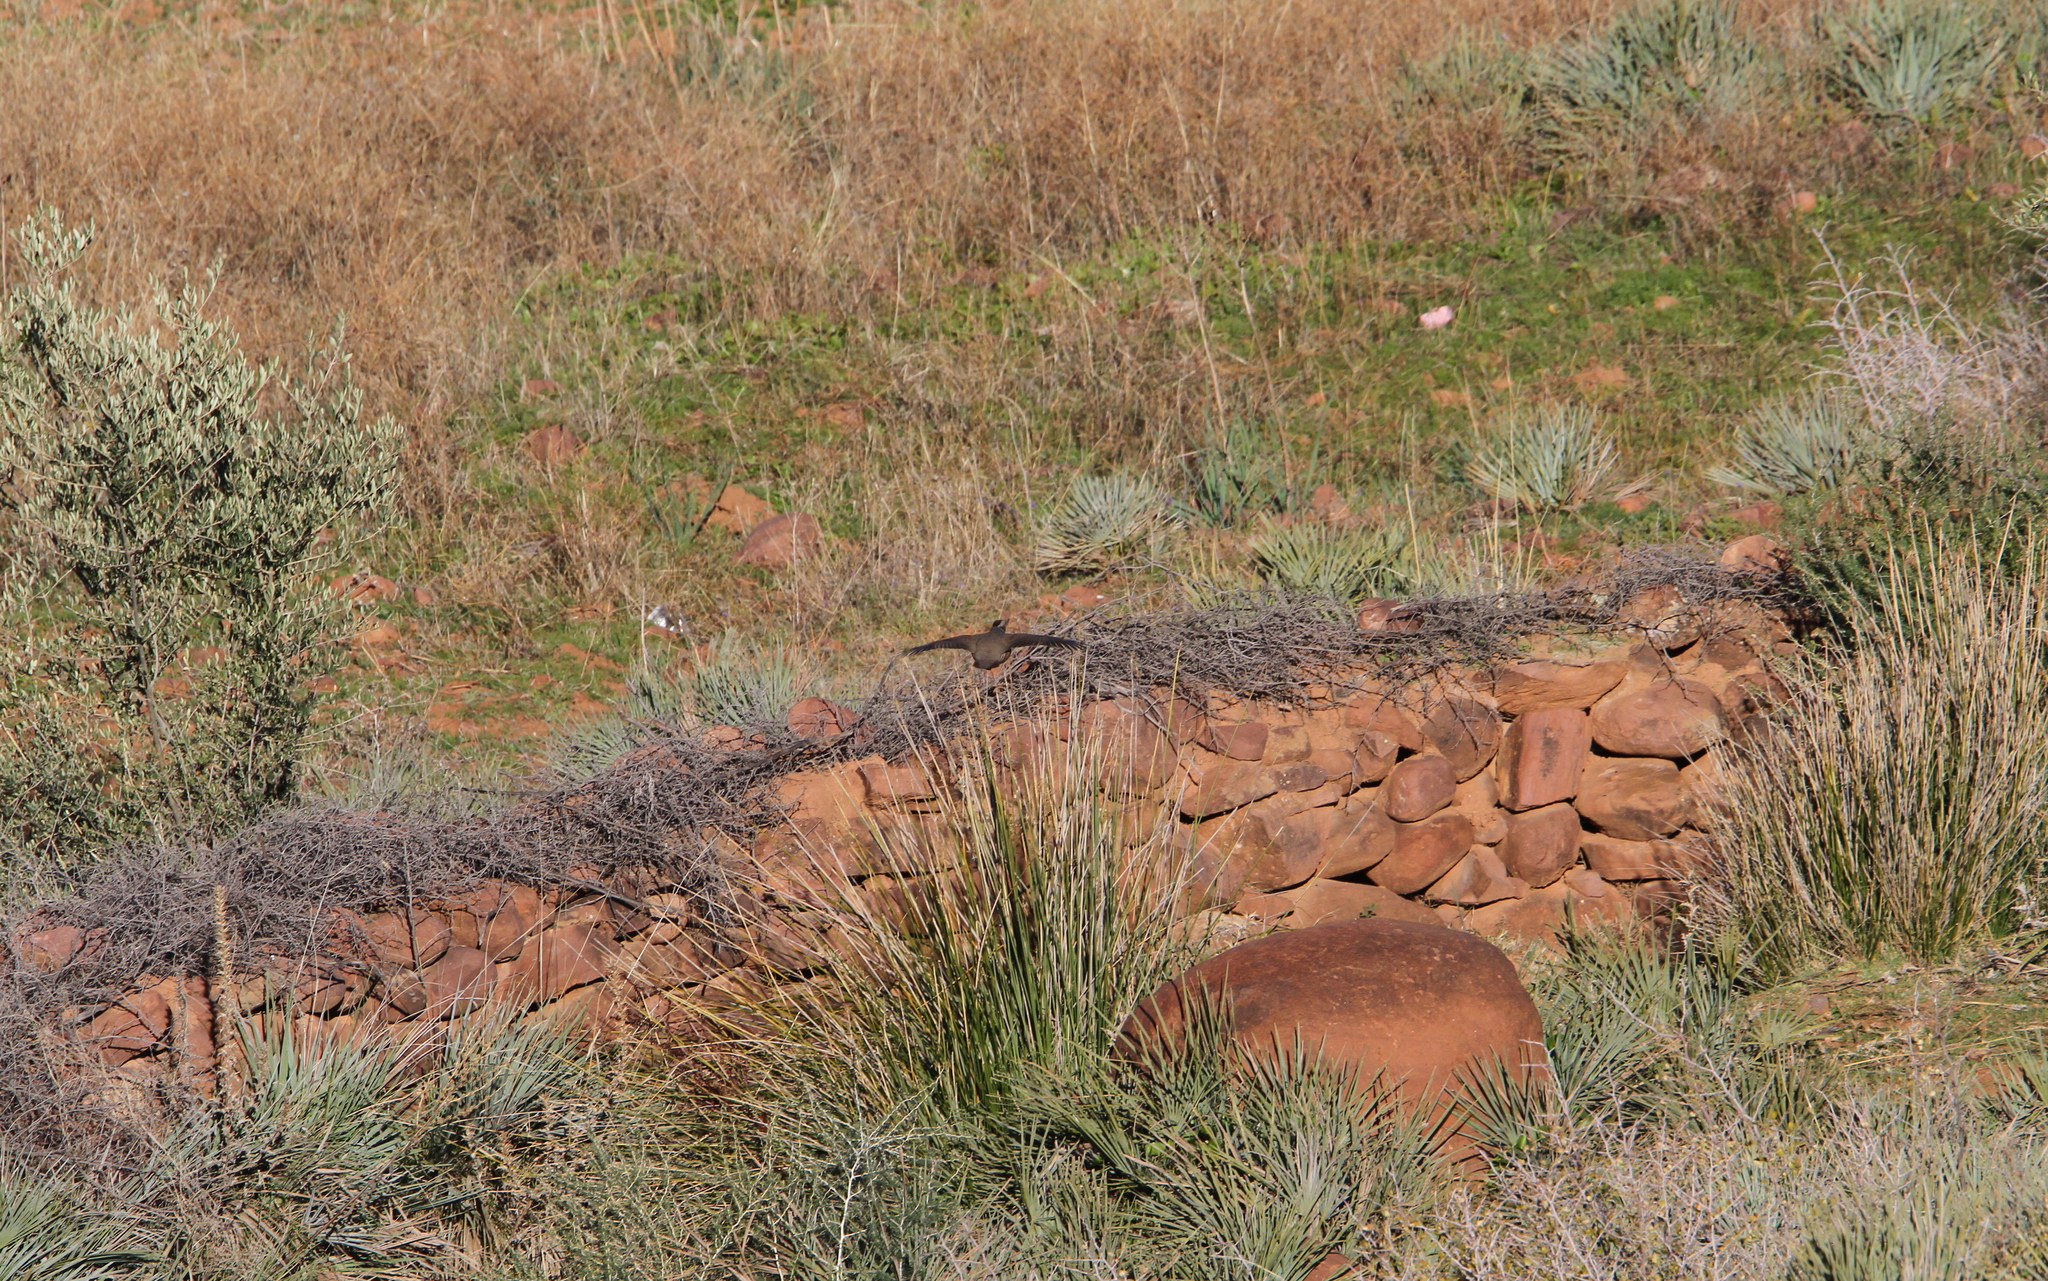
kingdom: Animalia
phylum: Chordata
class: Aves
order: Galliformes
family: Phasianidae
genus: Alectoris
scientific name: Alectoris barbara
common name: Barbary partridge
